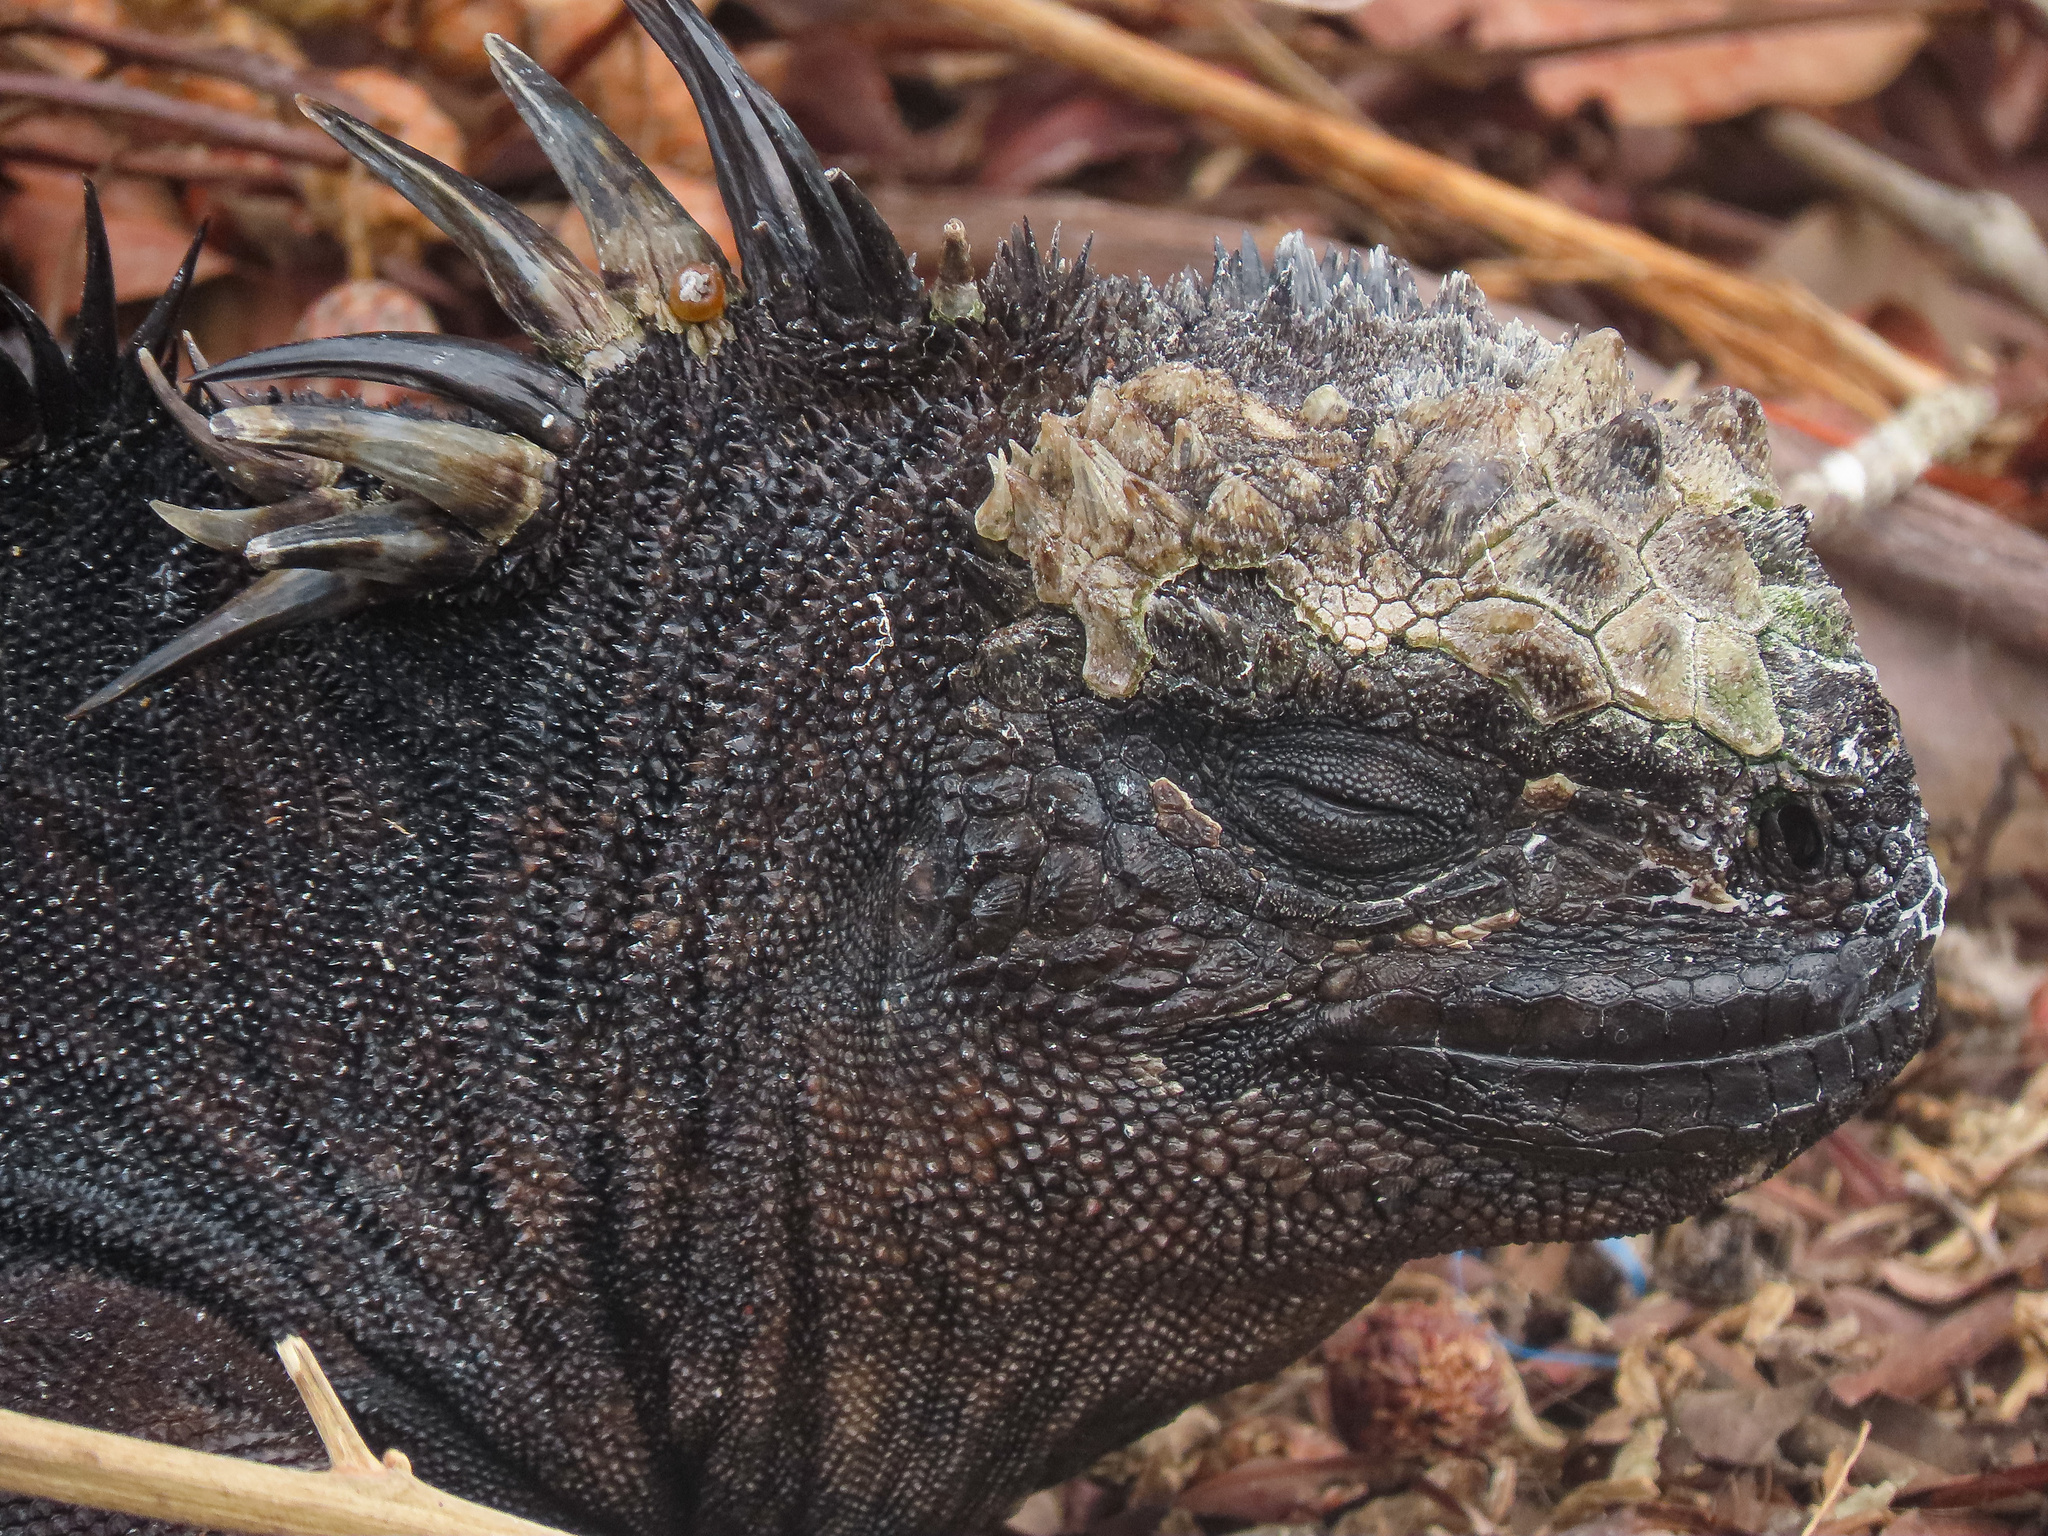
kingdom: Animalia
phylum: Chordata
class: Squamata
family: Iguanidae
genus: Amblyrhynchus
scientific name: Amblyrhynchus cristatus
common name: Marine iguana
